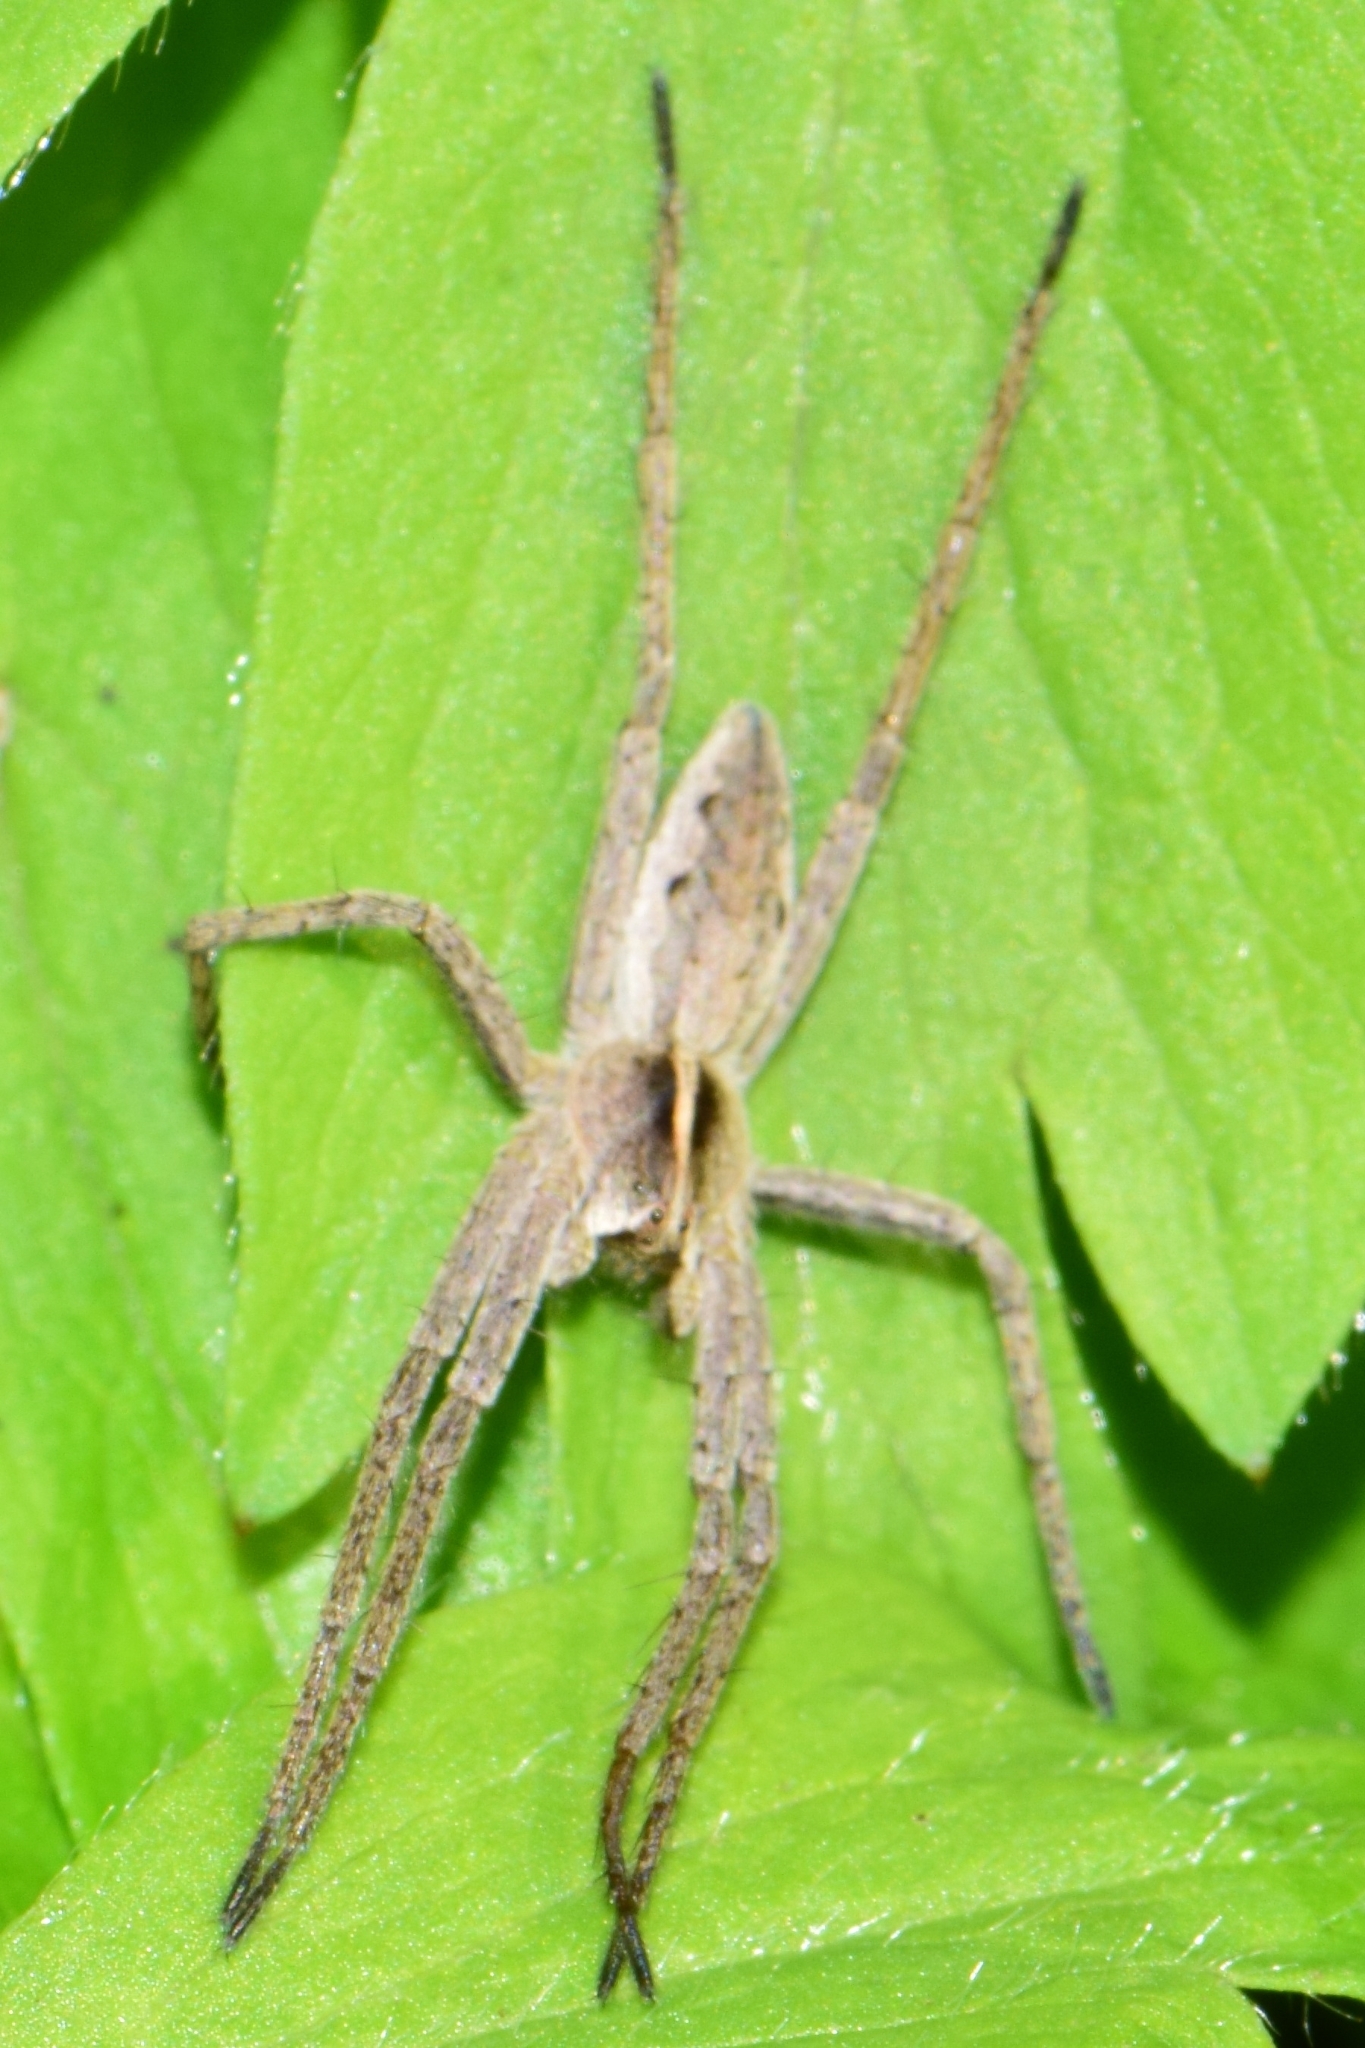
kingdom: Animalia
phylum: Arthropoda
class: Arachnida
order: Araneae
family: Pisauridae
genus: Pisaura
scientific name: Pisaura mirabilis
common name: Tent spider
